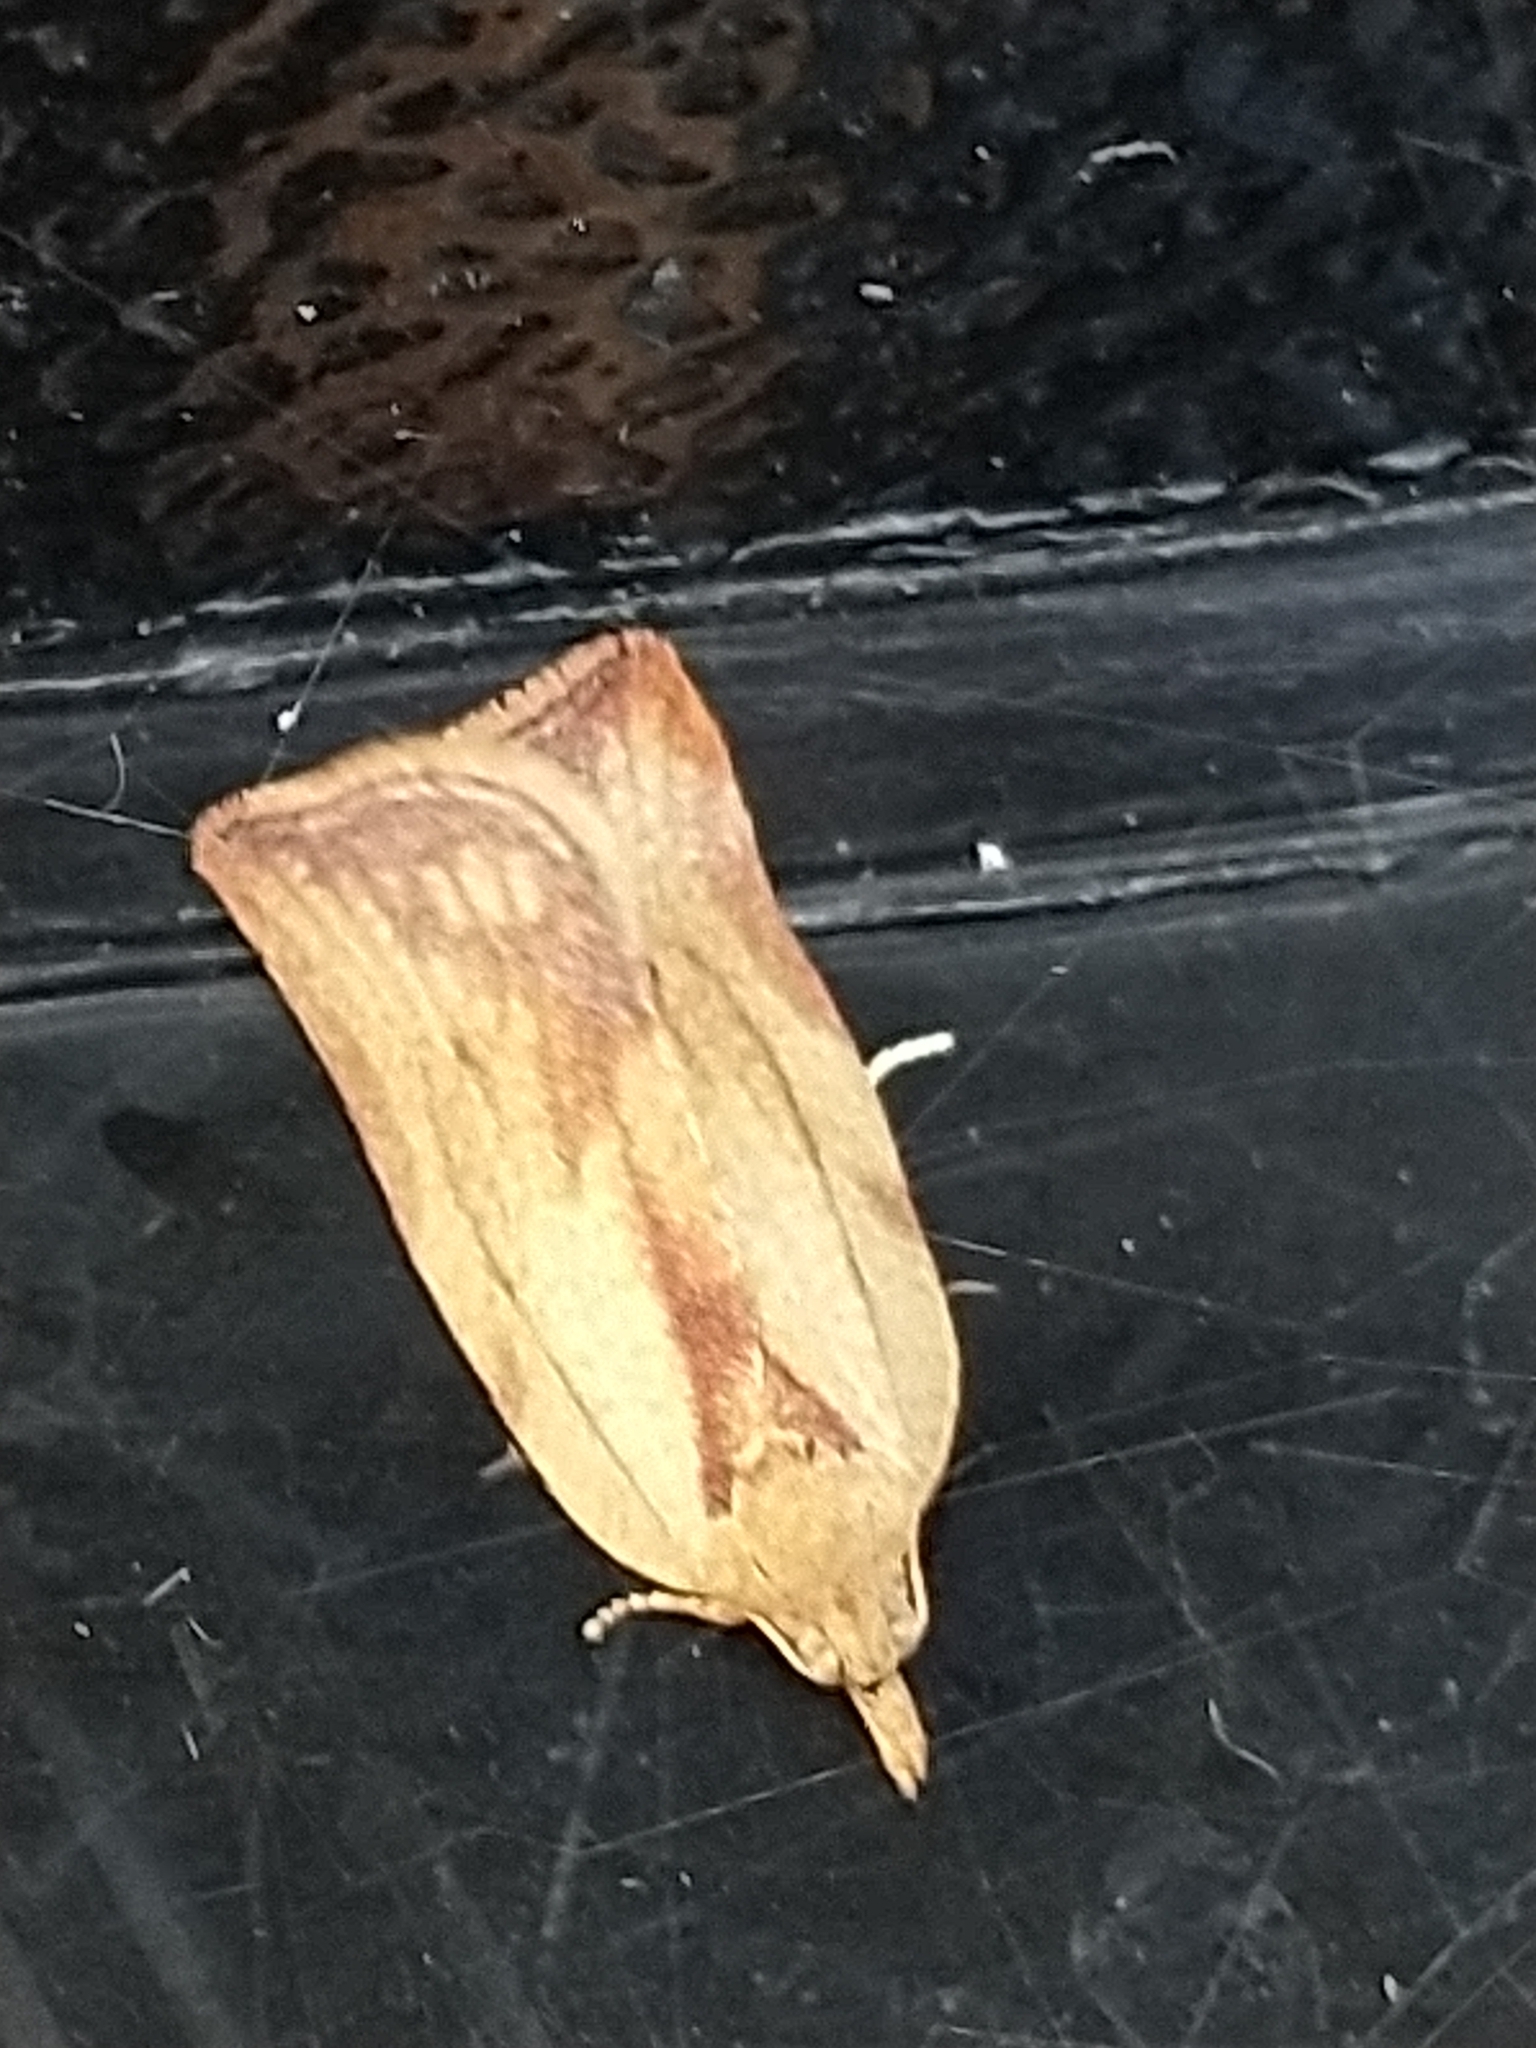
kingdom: Animalia
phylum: Arthropoda
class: Insecta
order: Lepidoptera
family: Tortricidae
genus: Epiphyas
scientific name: Epiphyas postvittana
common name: Light brown apple moth
